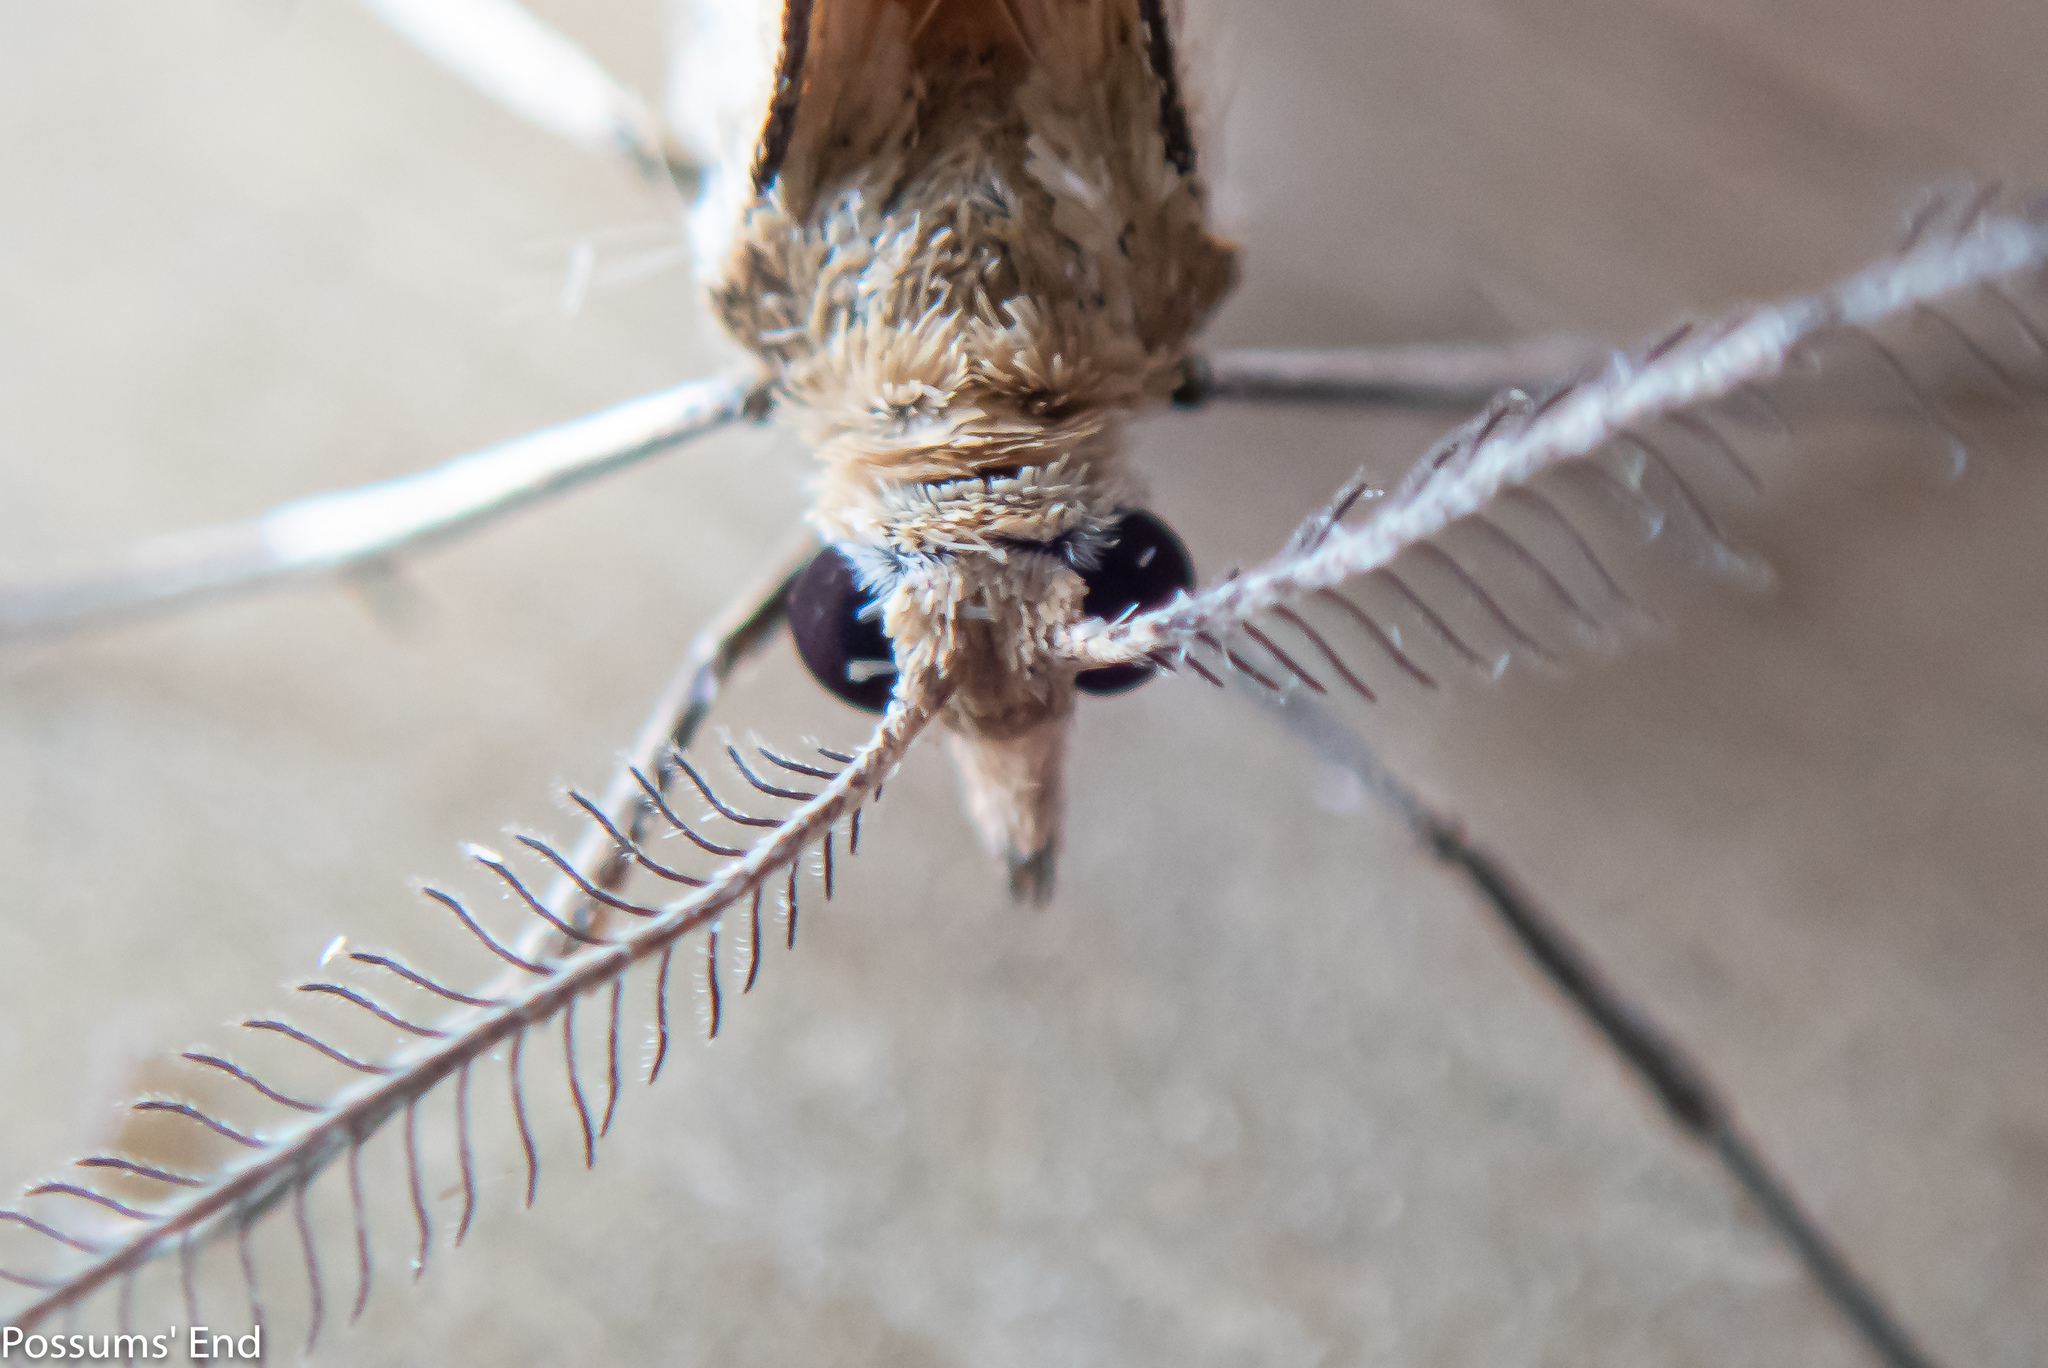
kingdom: Animalia
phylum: Arthropoda
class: Insecta
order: Lepidoptera
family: Geometridae
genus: Asaphodes
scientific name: Asaphodes abrogata
